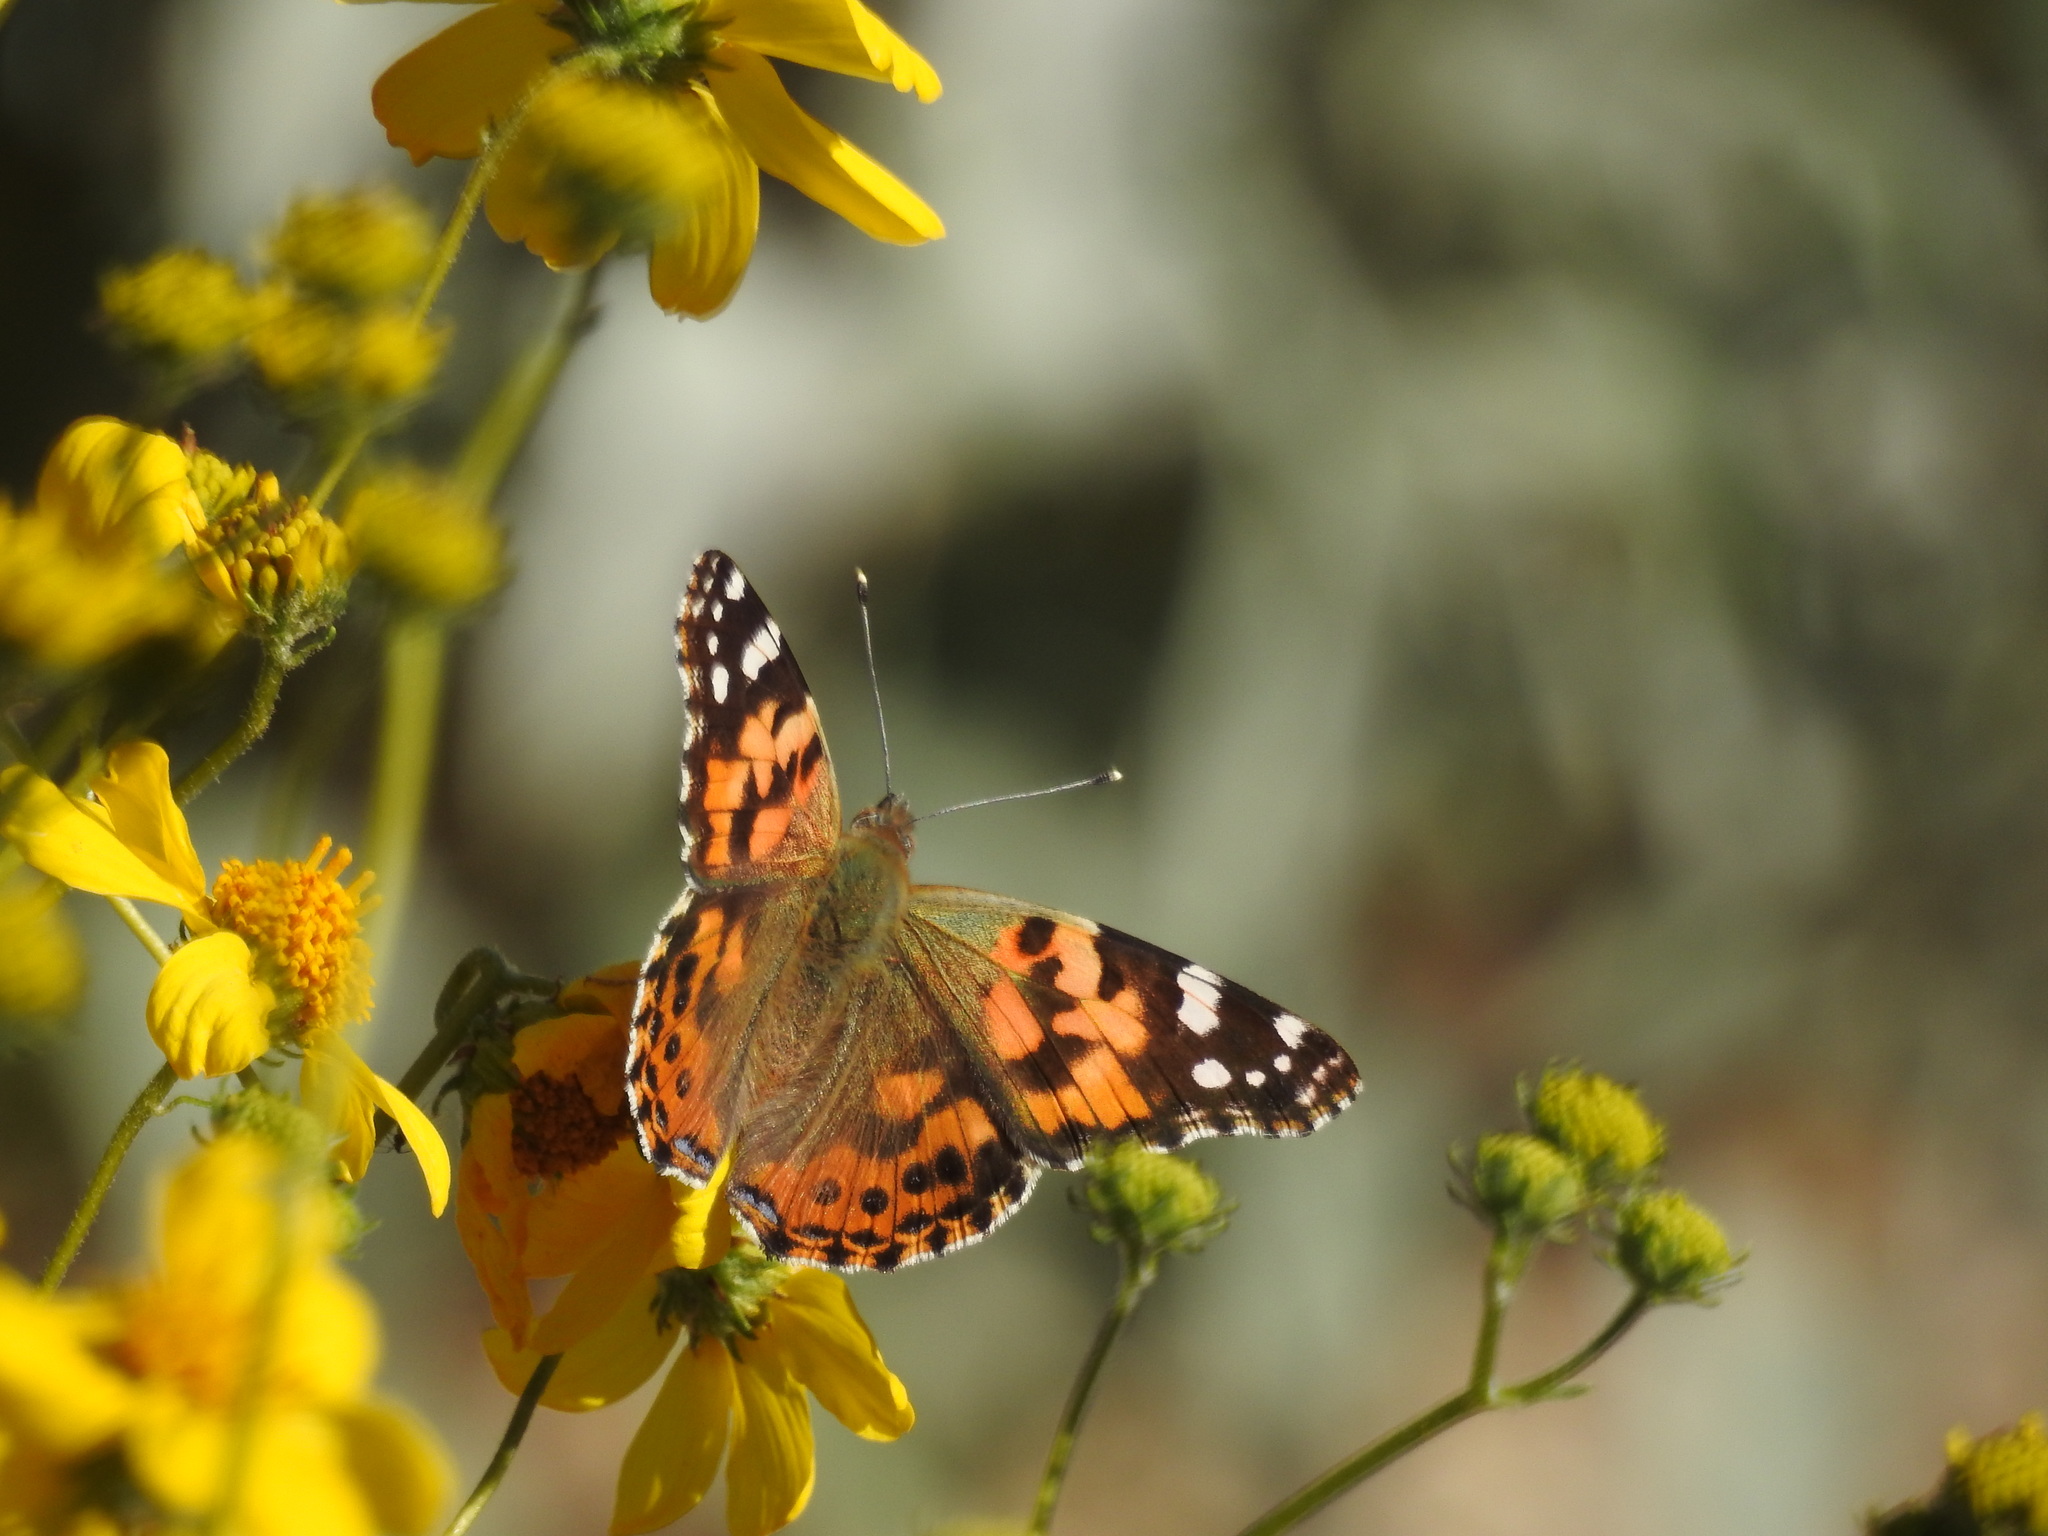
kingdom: Animalia
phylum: Arthropoda
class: Insecta
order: Lepidoptera
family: Nymphalidae
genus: Vanessa
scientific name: Vanessa cardui
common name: Painted lady
